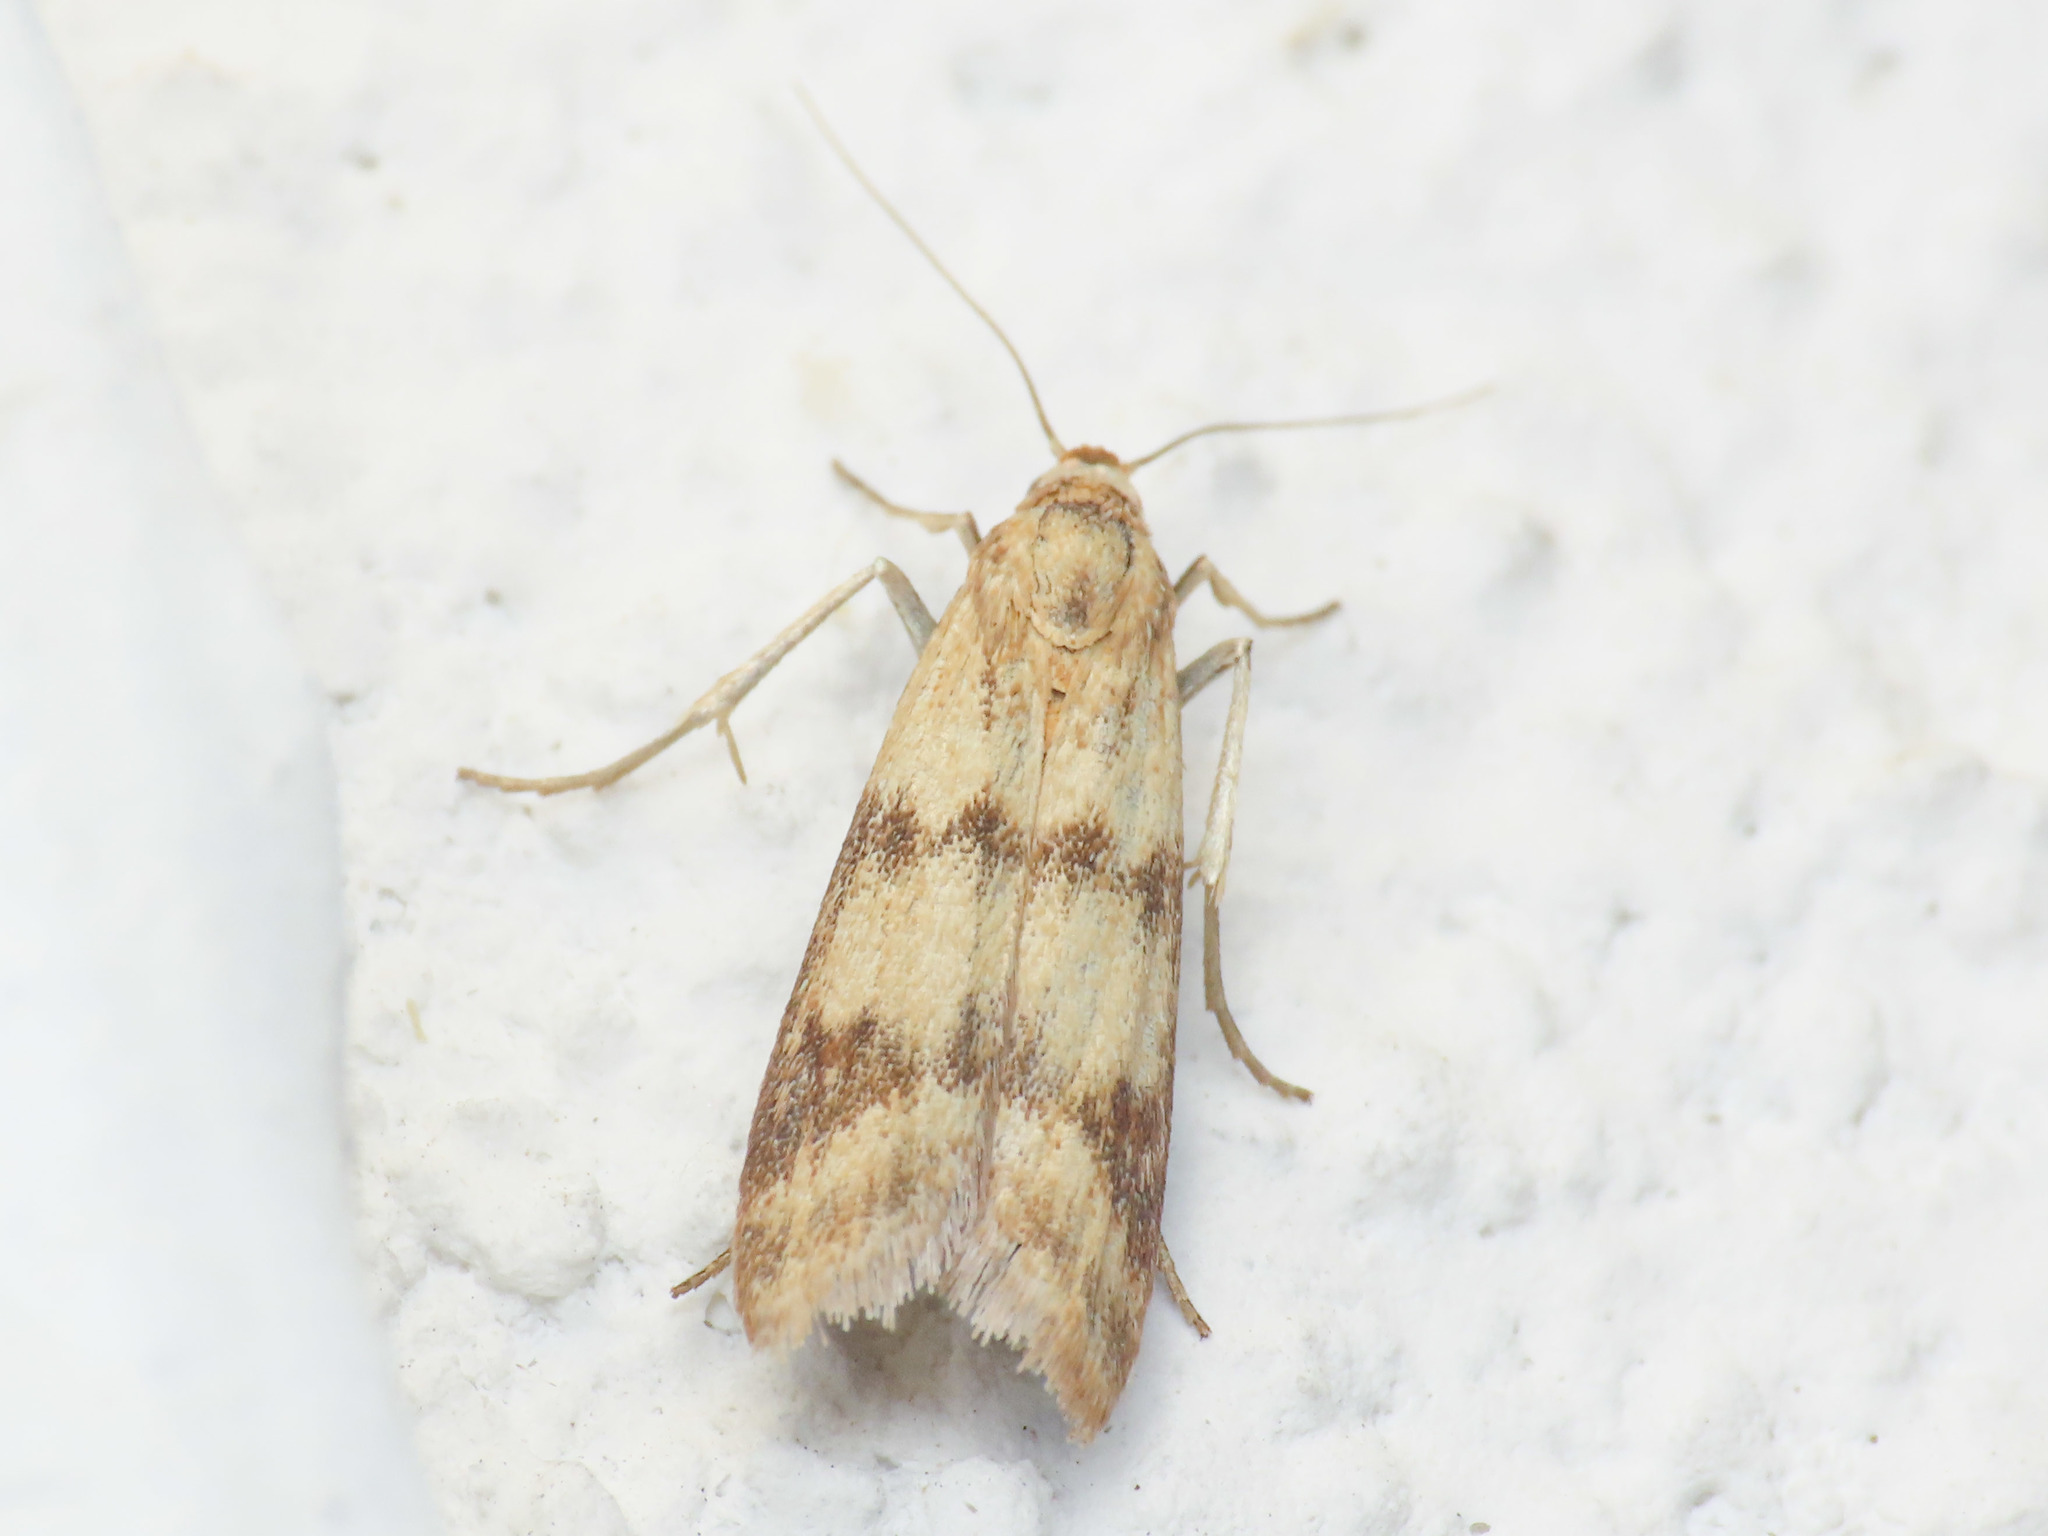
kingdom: Animalia
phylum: Arthropoda
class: Insecta
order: Lepidoptera
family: Pyralidae
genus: Homoeosoma
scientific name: Homoeosoma sinuella
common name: Twin-barred knot-horn
